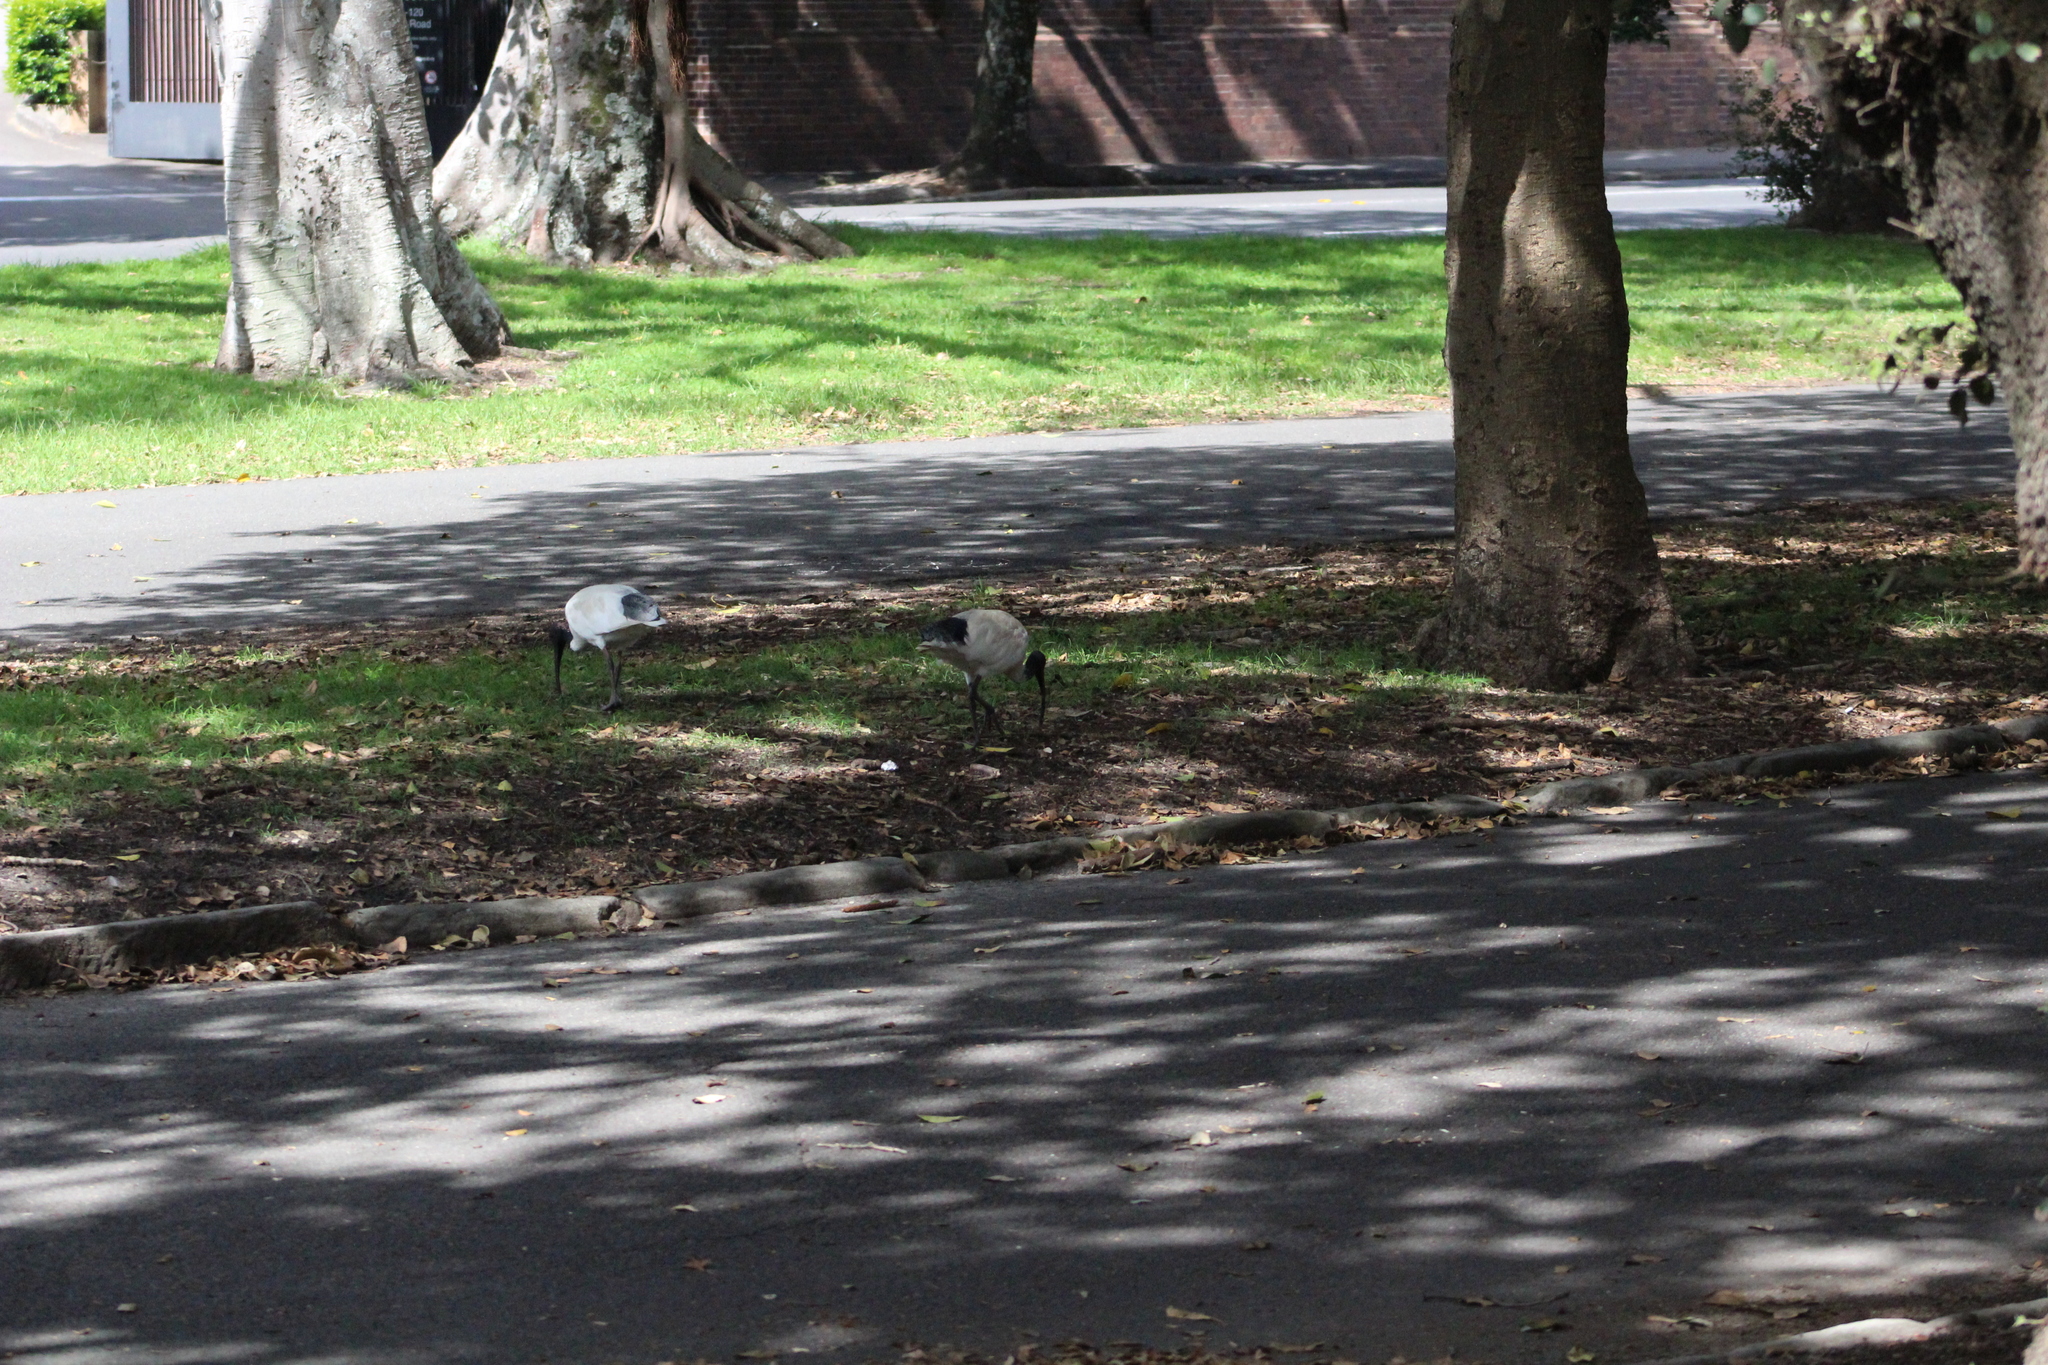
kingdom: Animalia
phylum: Chordata
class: Aves
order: Pelecaniformes
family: Threskiornithidae
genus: Threskiornis
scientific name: Threskiornis molucca
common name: Australian white ibis
